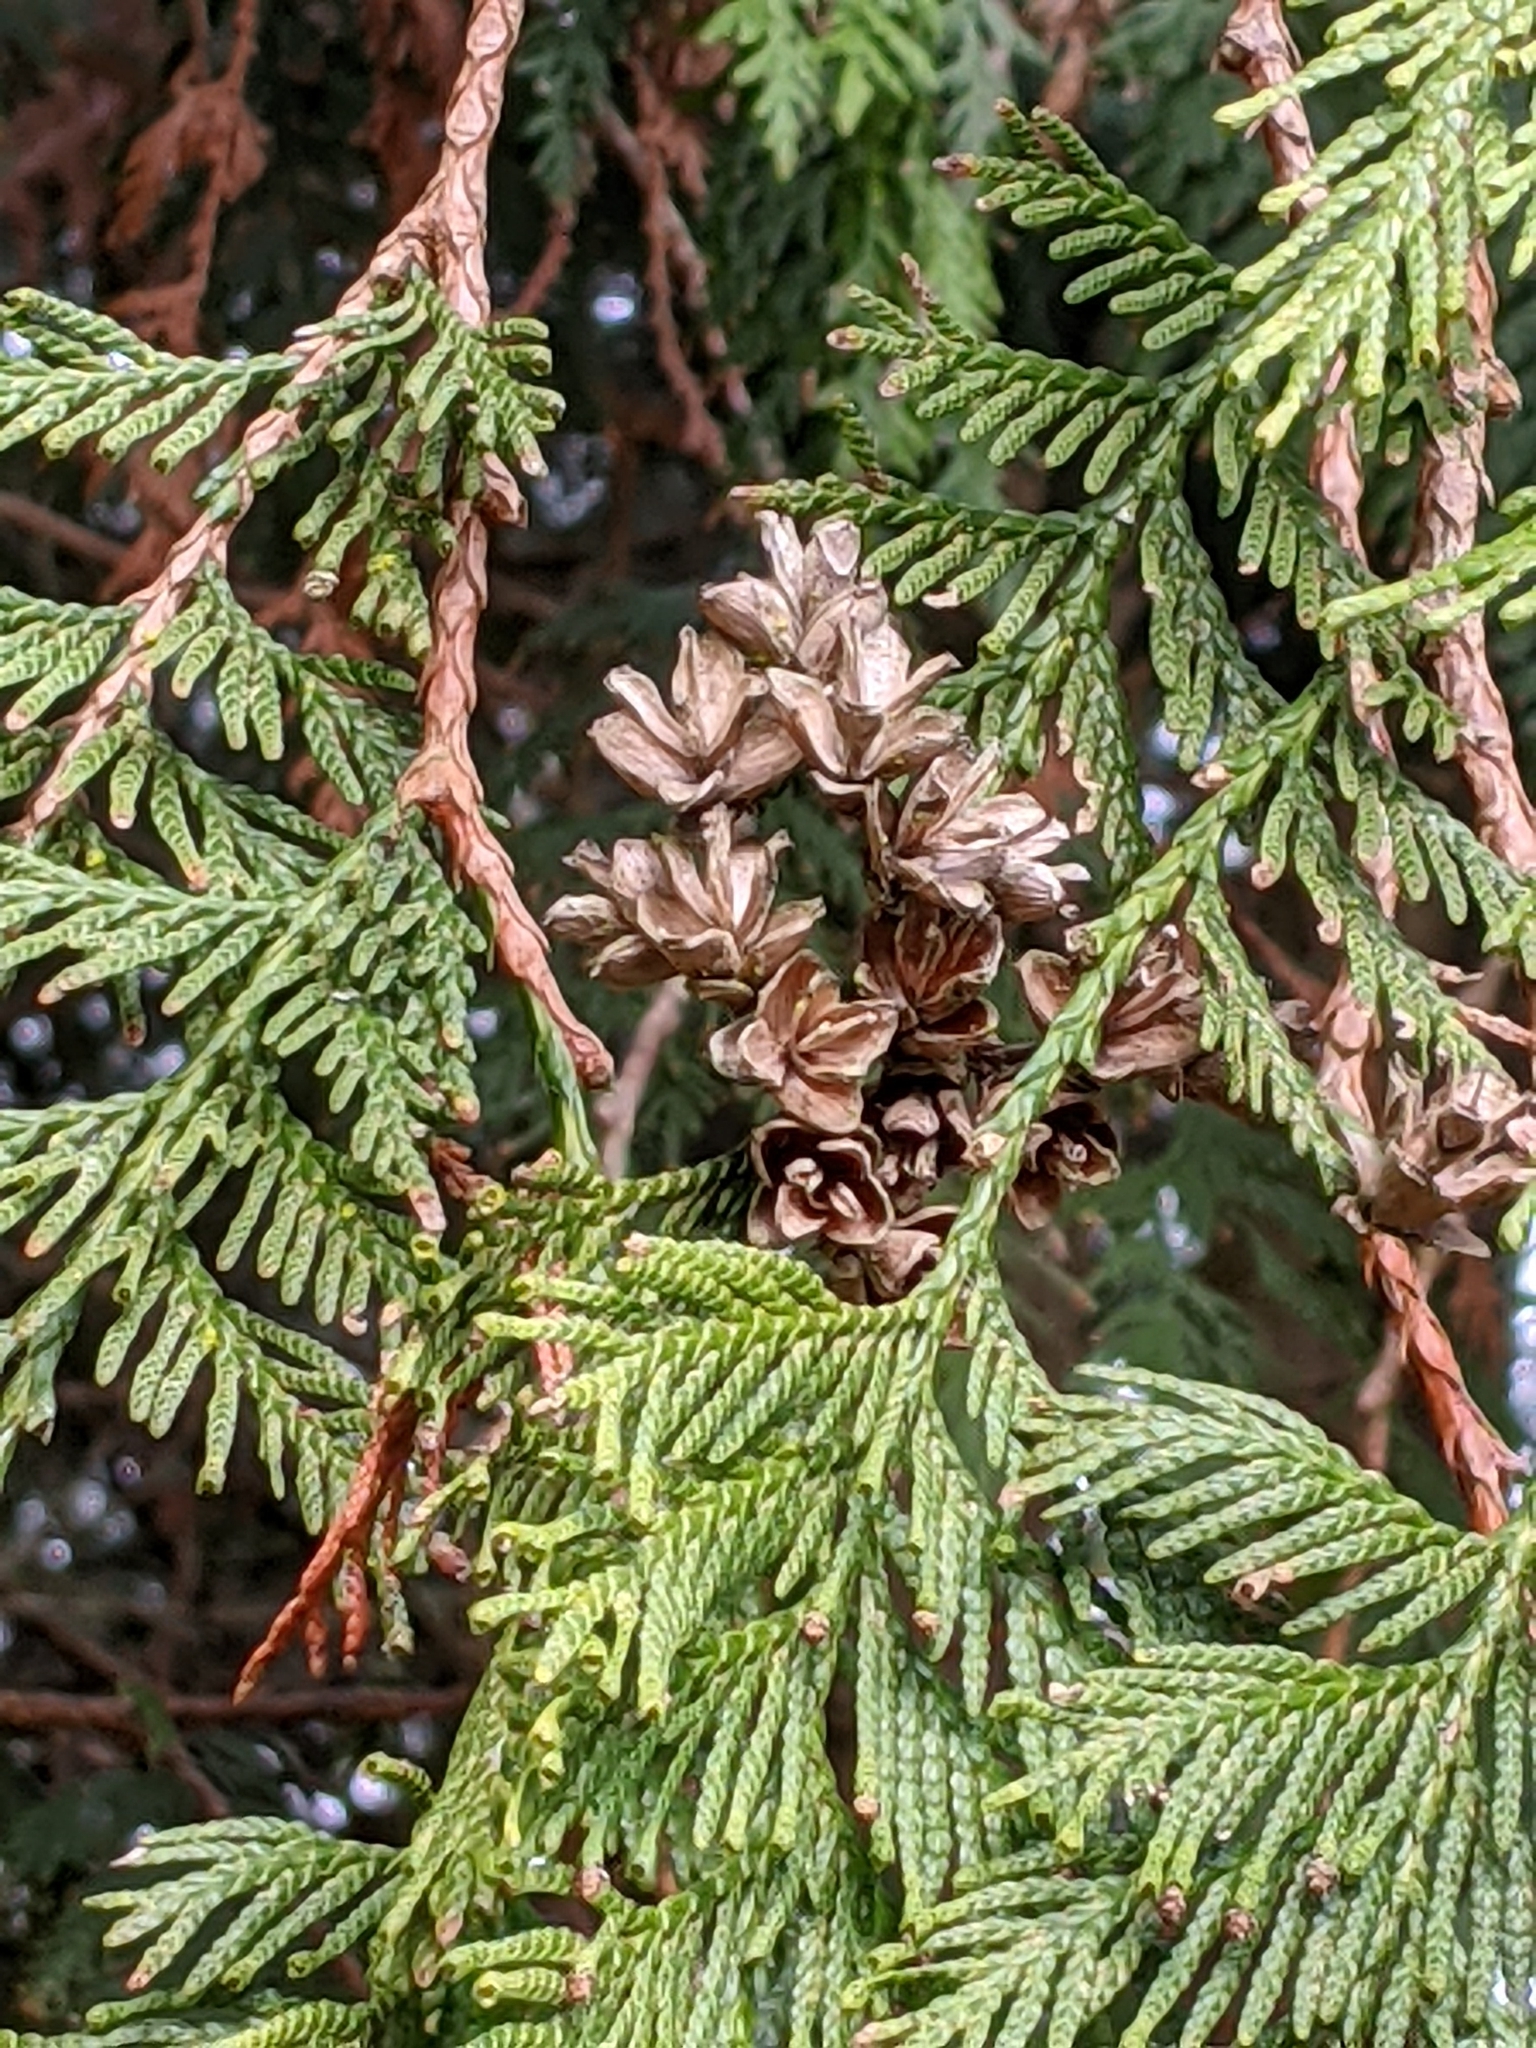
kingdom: Plantae
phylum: Tracheophyta
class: Pinopsida
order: Pinales
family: Cupressaceae
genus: Thuja
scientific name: Thuja plicata
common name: Western red-cedar
